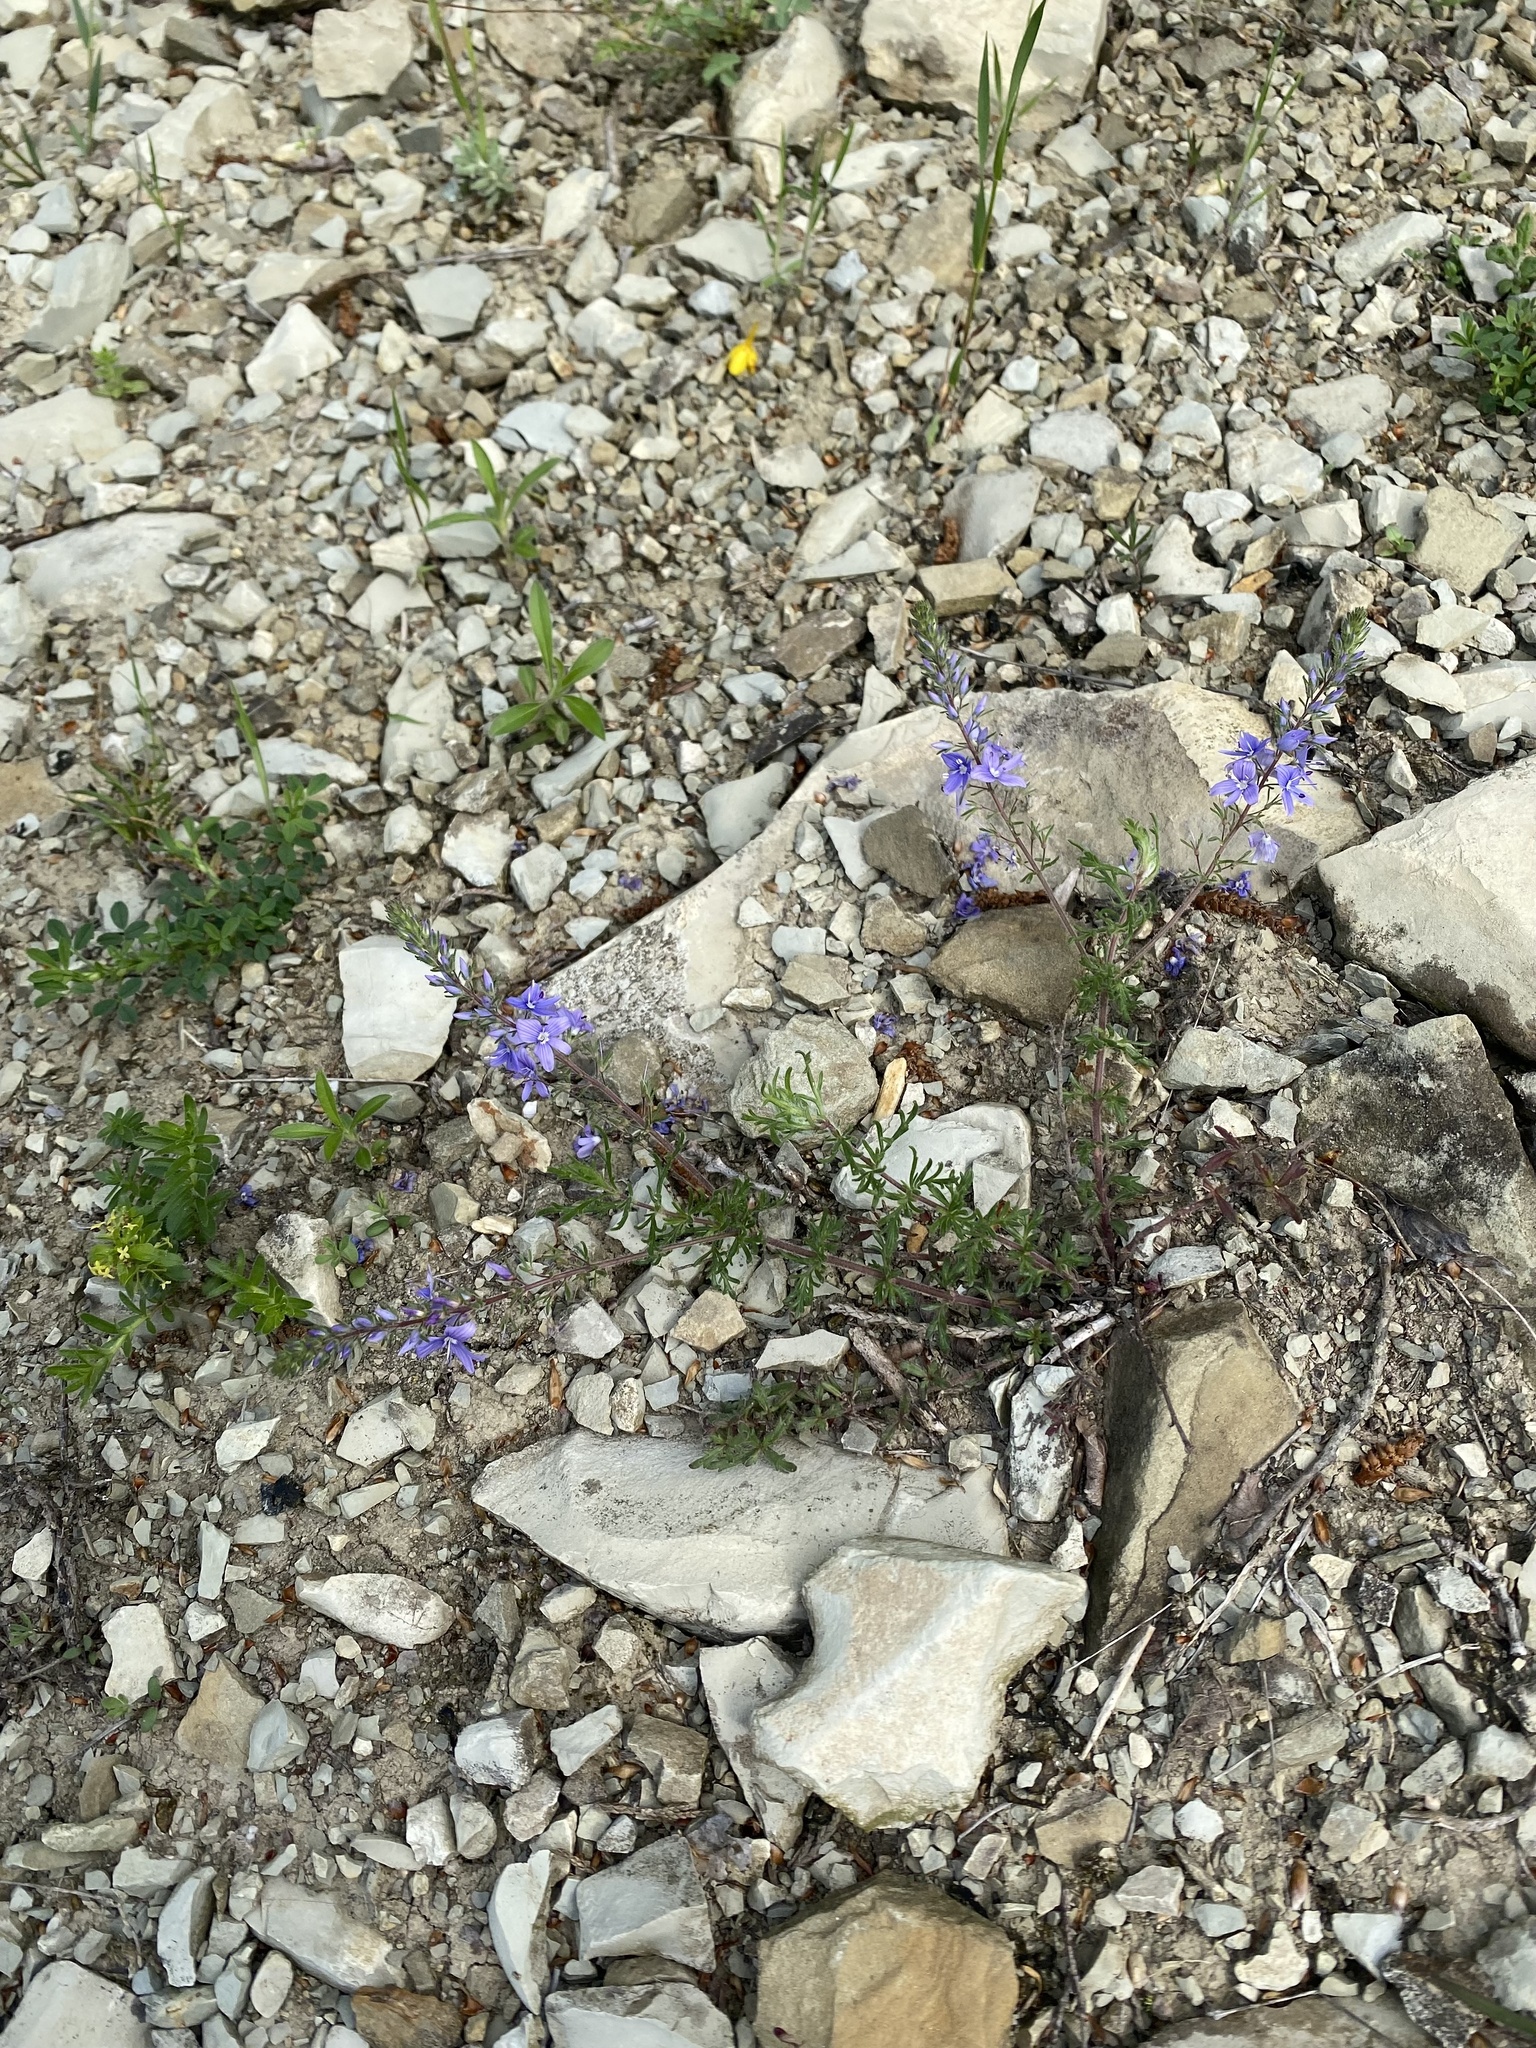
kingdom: Plantae
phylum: Tracheophyta
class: Magnoliopsida
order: Lamiales
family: Plantaginaceae
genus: Veronica
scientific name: Veronica capsellicarpa
